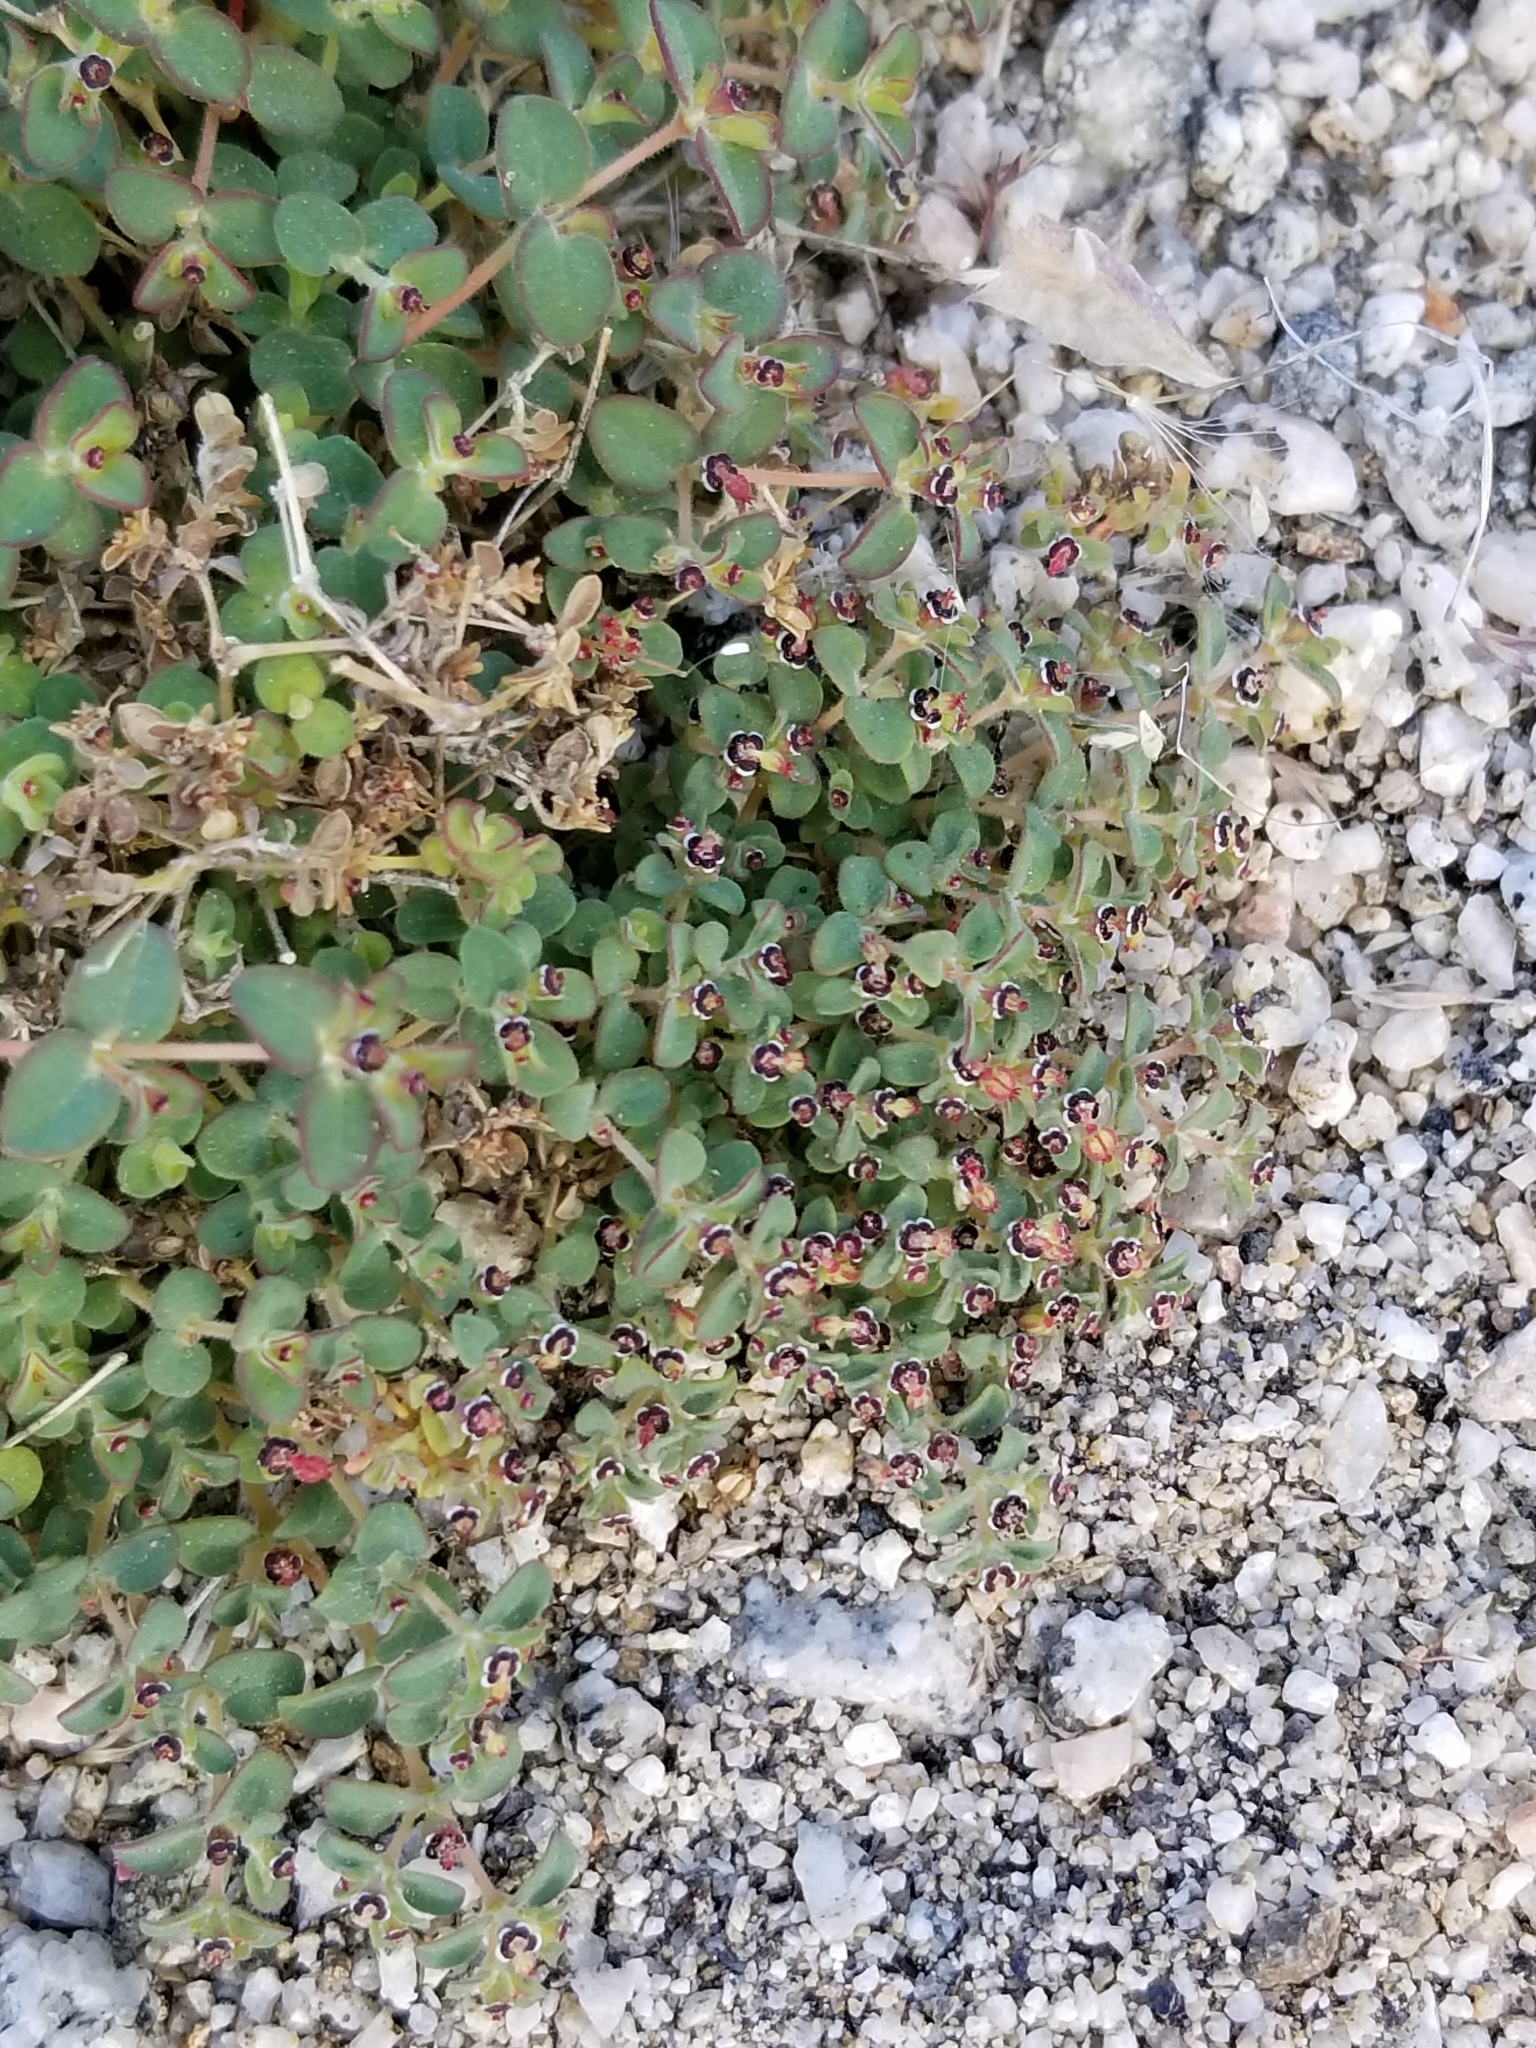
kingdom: Plantae
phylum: Tracheophyta
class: Magnoliopsida
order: Malpighiales
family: Euphorbiaceae
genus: Euphorbia
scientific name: Euphorbia polycarpa
